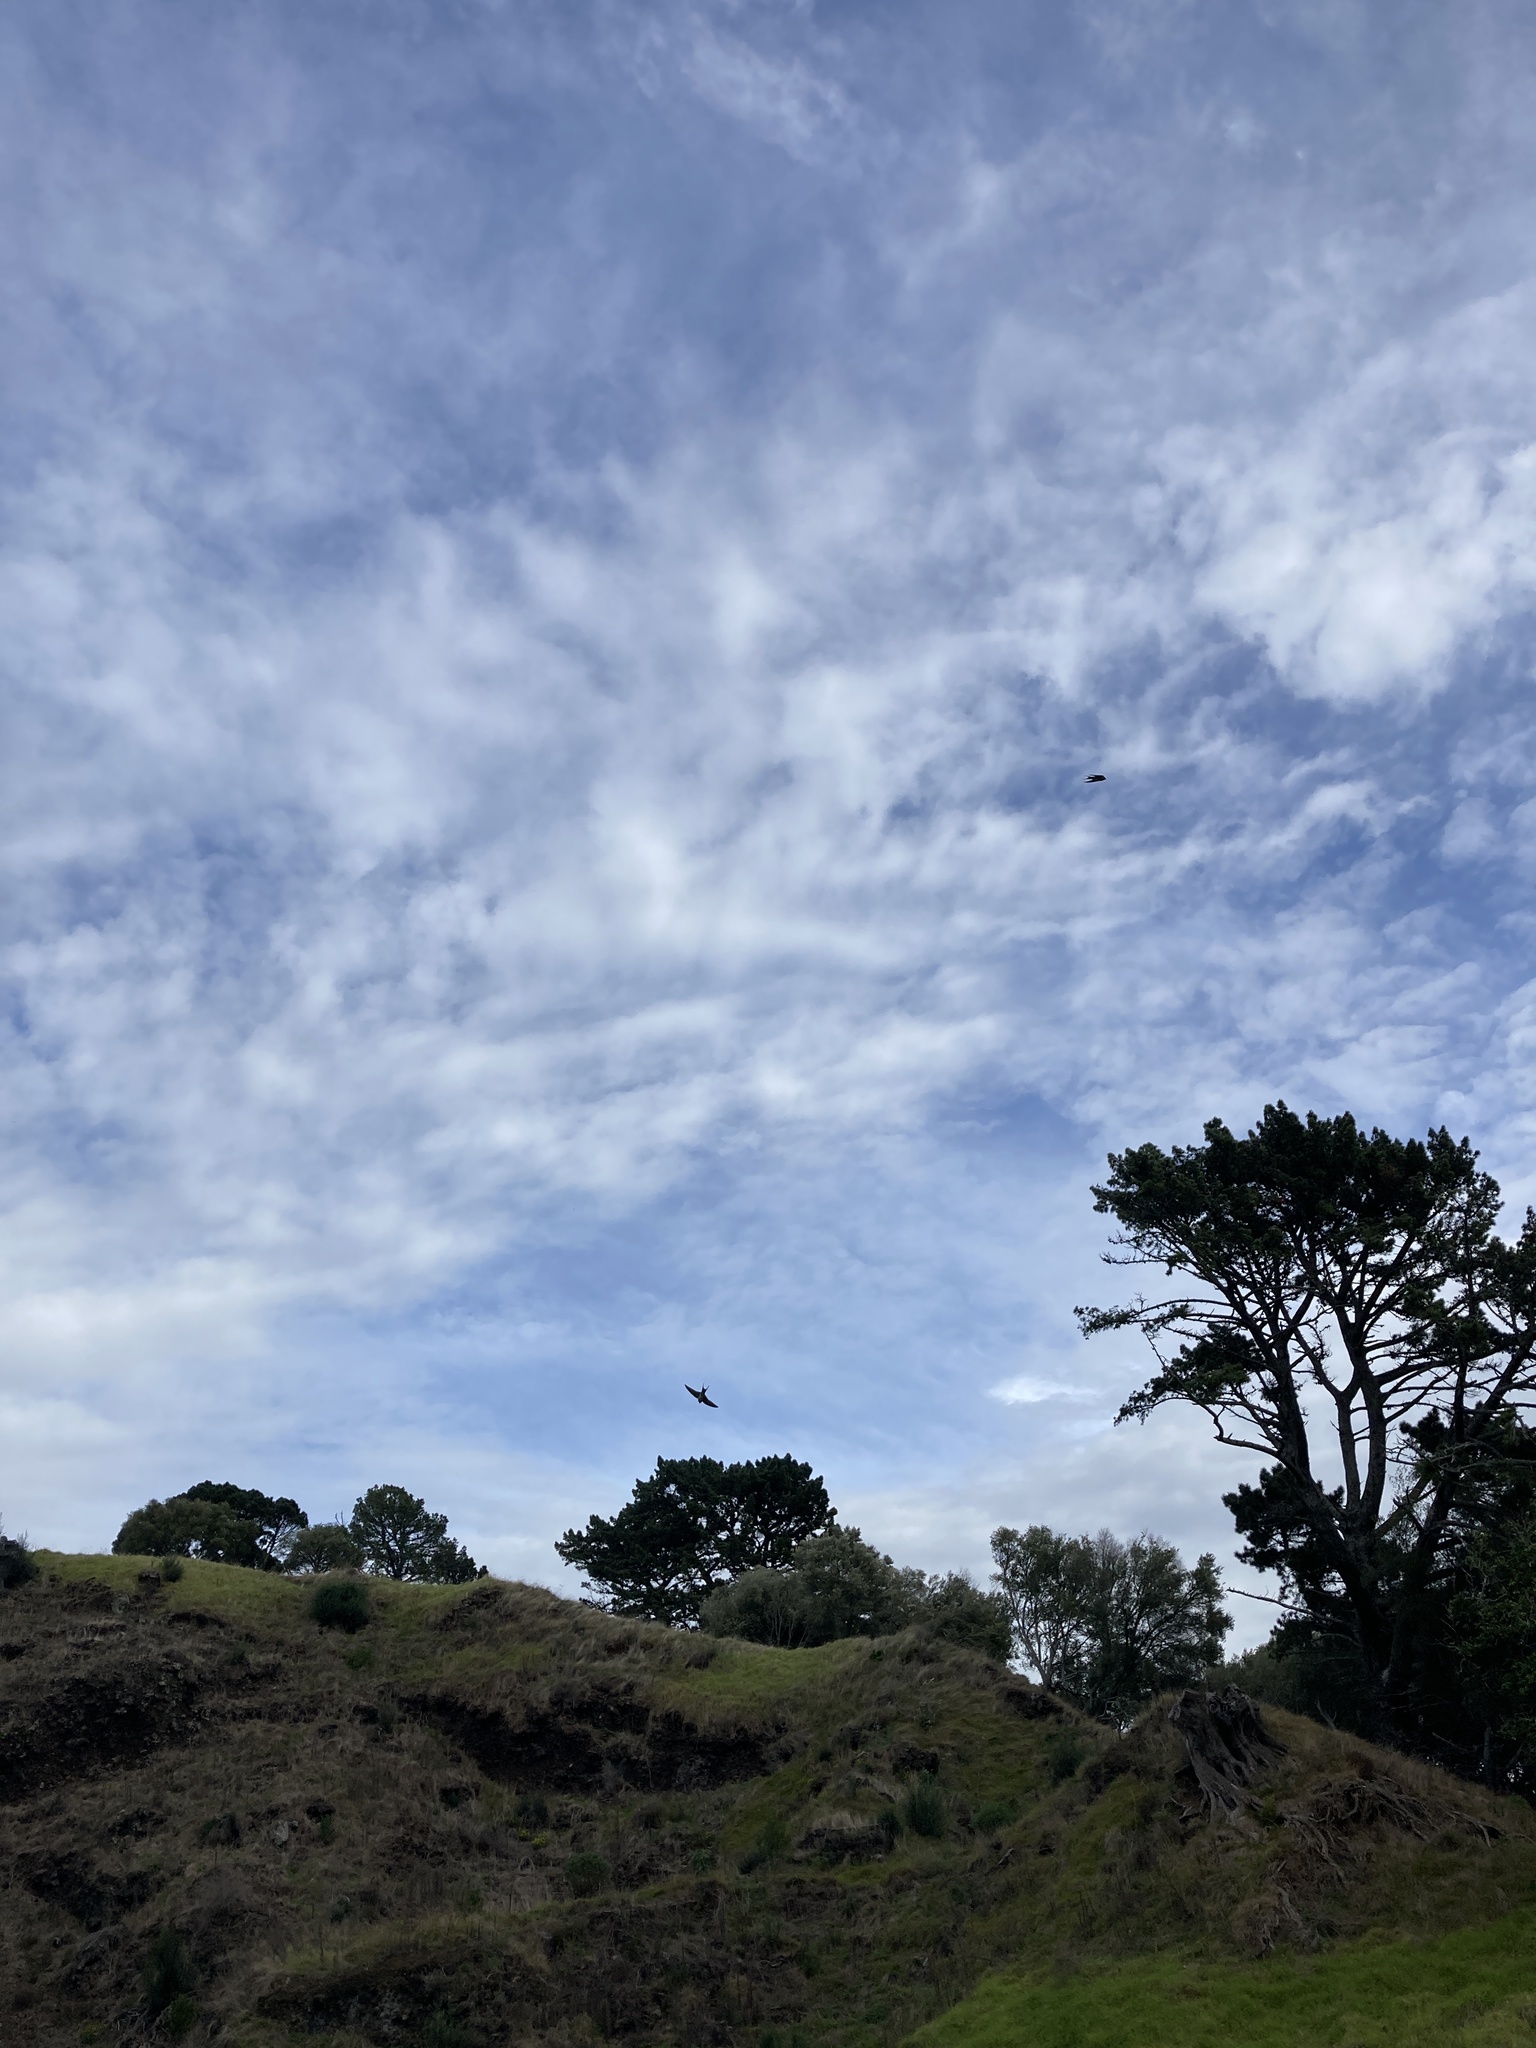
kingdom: Animalia
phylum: Chordata
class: Aves
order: Passeriformes
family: Hirundinidae
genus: Hirundo
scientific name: Hirundo neoxena
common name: Welcome swallow
